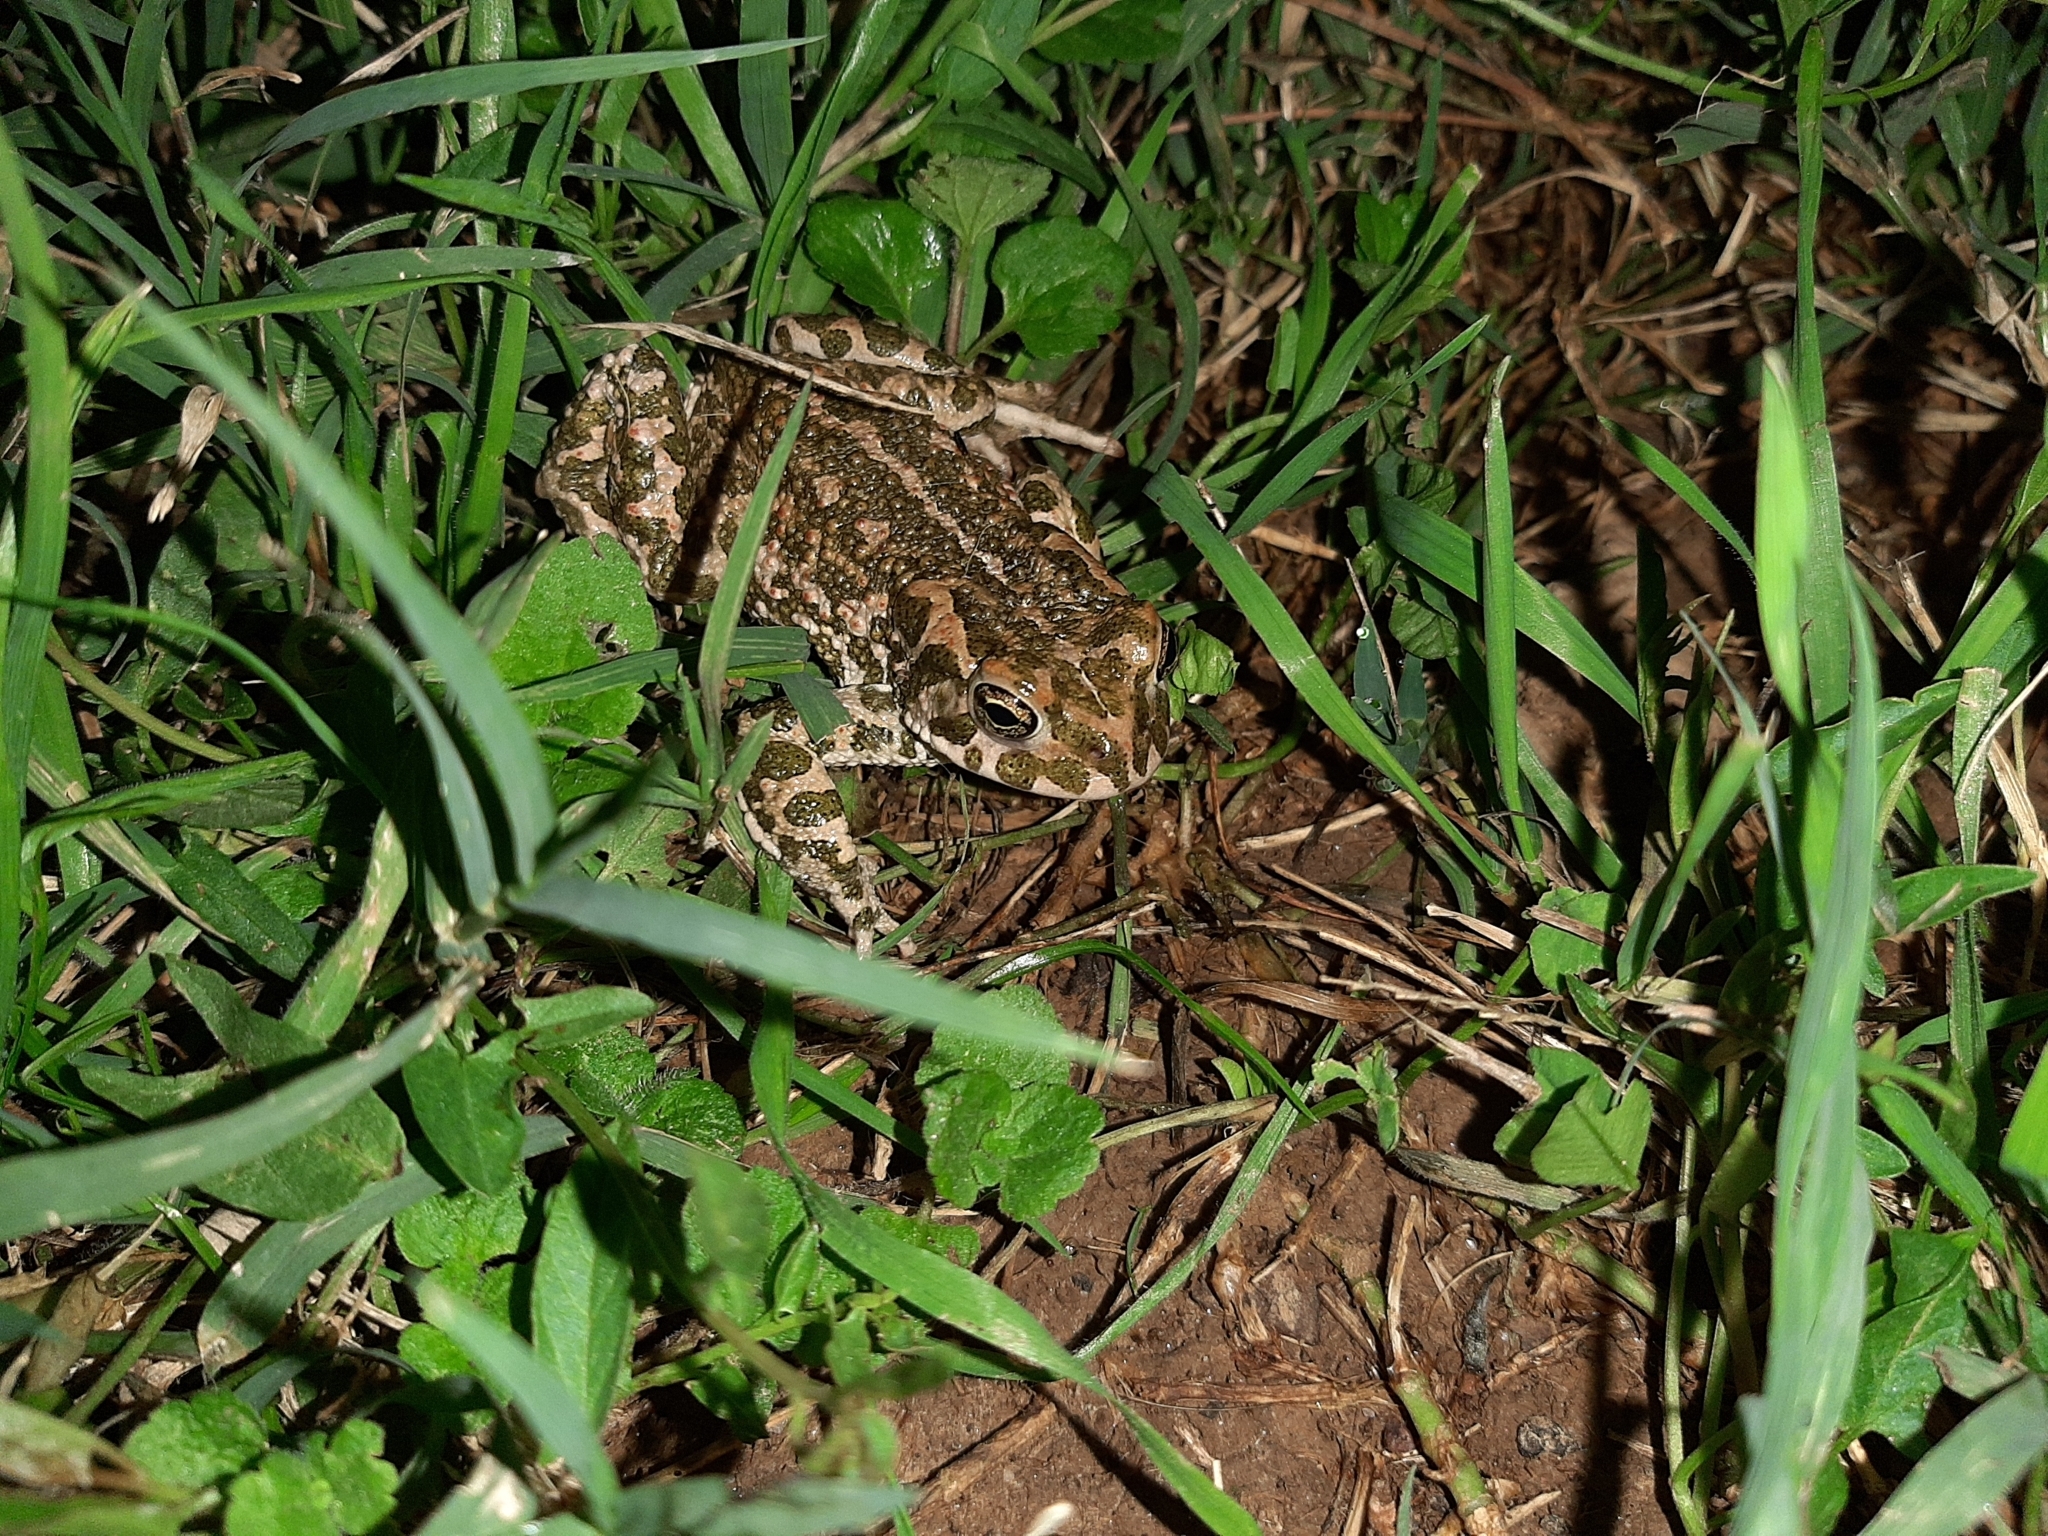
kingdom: Animalia
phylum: Chordata
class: Amphibia
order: Anura
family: Bufonidae
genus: Bufotes
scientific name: Bufotes viridis
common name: European green toad
